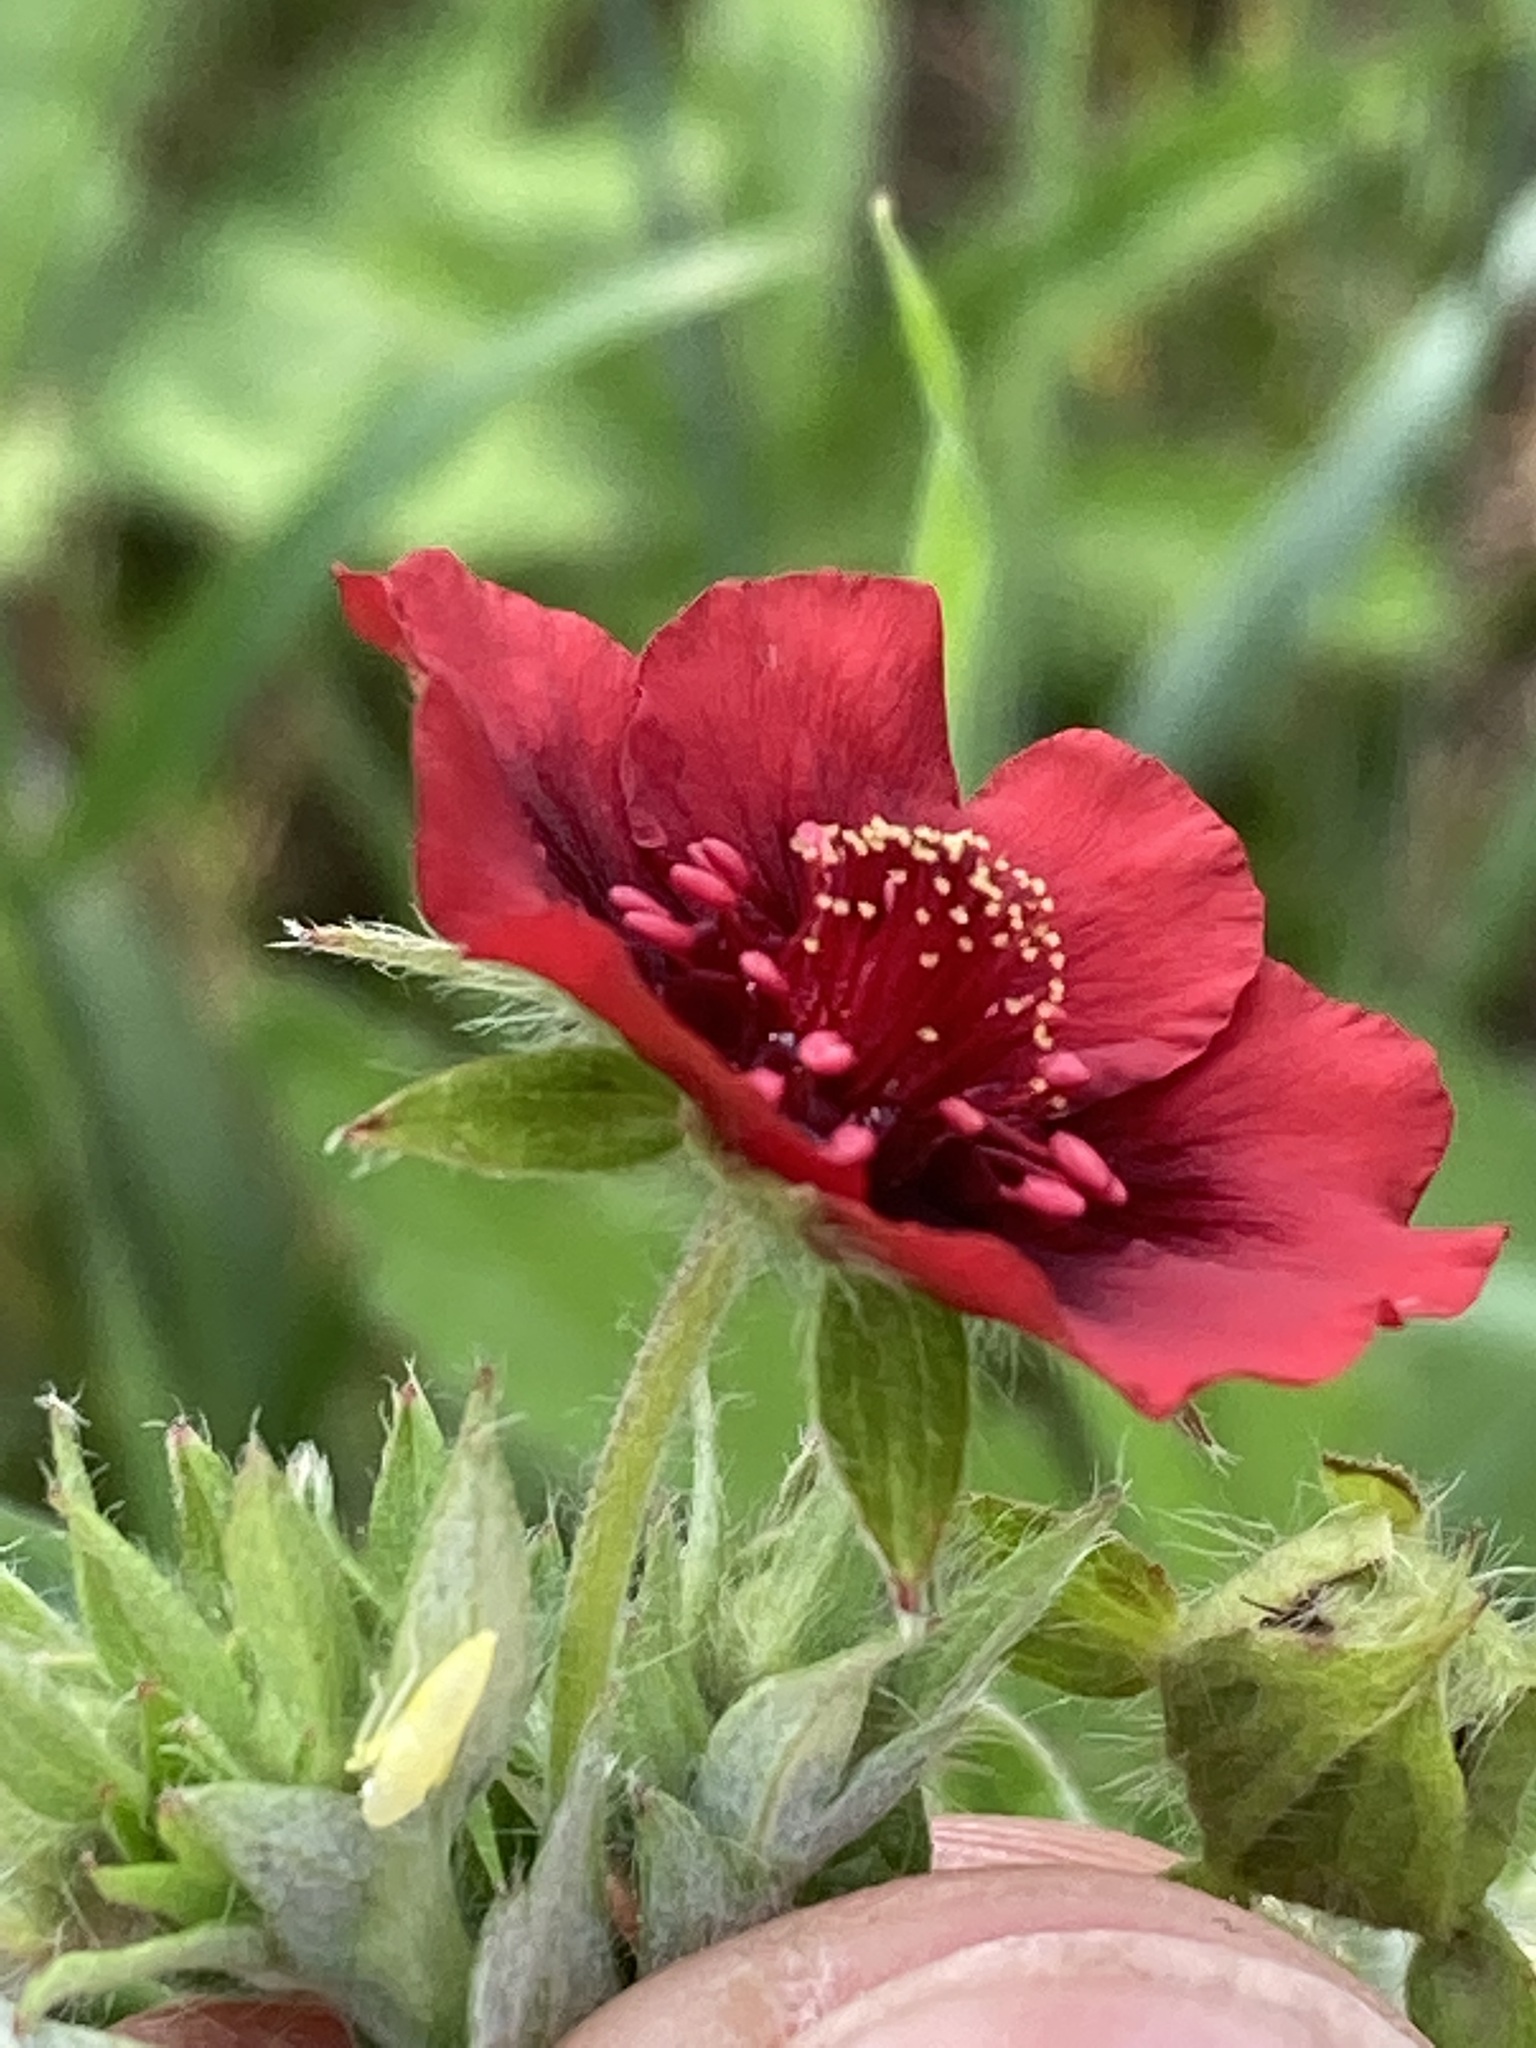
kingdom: Plantae
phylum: Tracheophyta
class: Magnoliopsida
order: Rosales
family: Rosaceae
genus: Potentilla
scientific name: Potentilla thurberi
